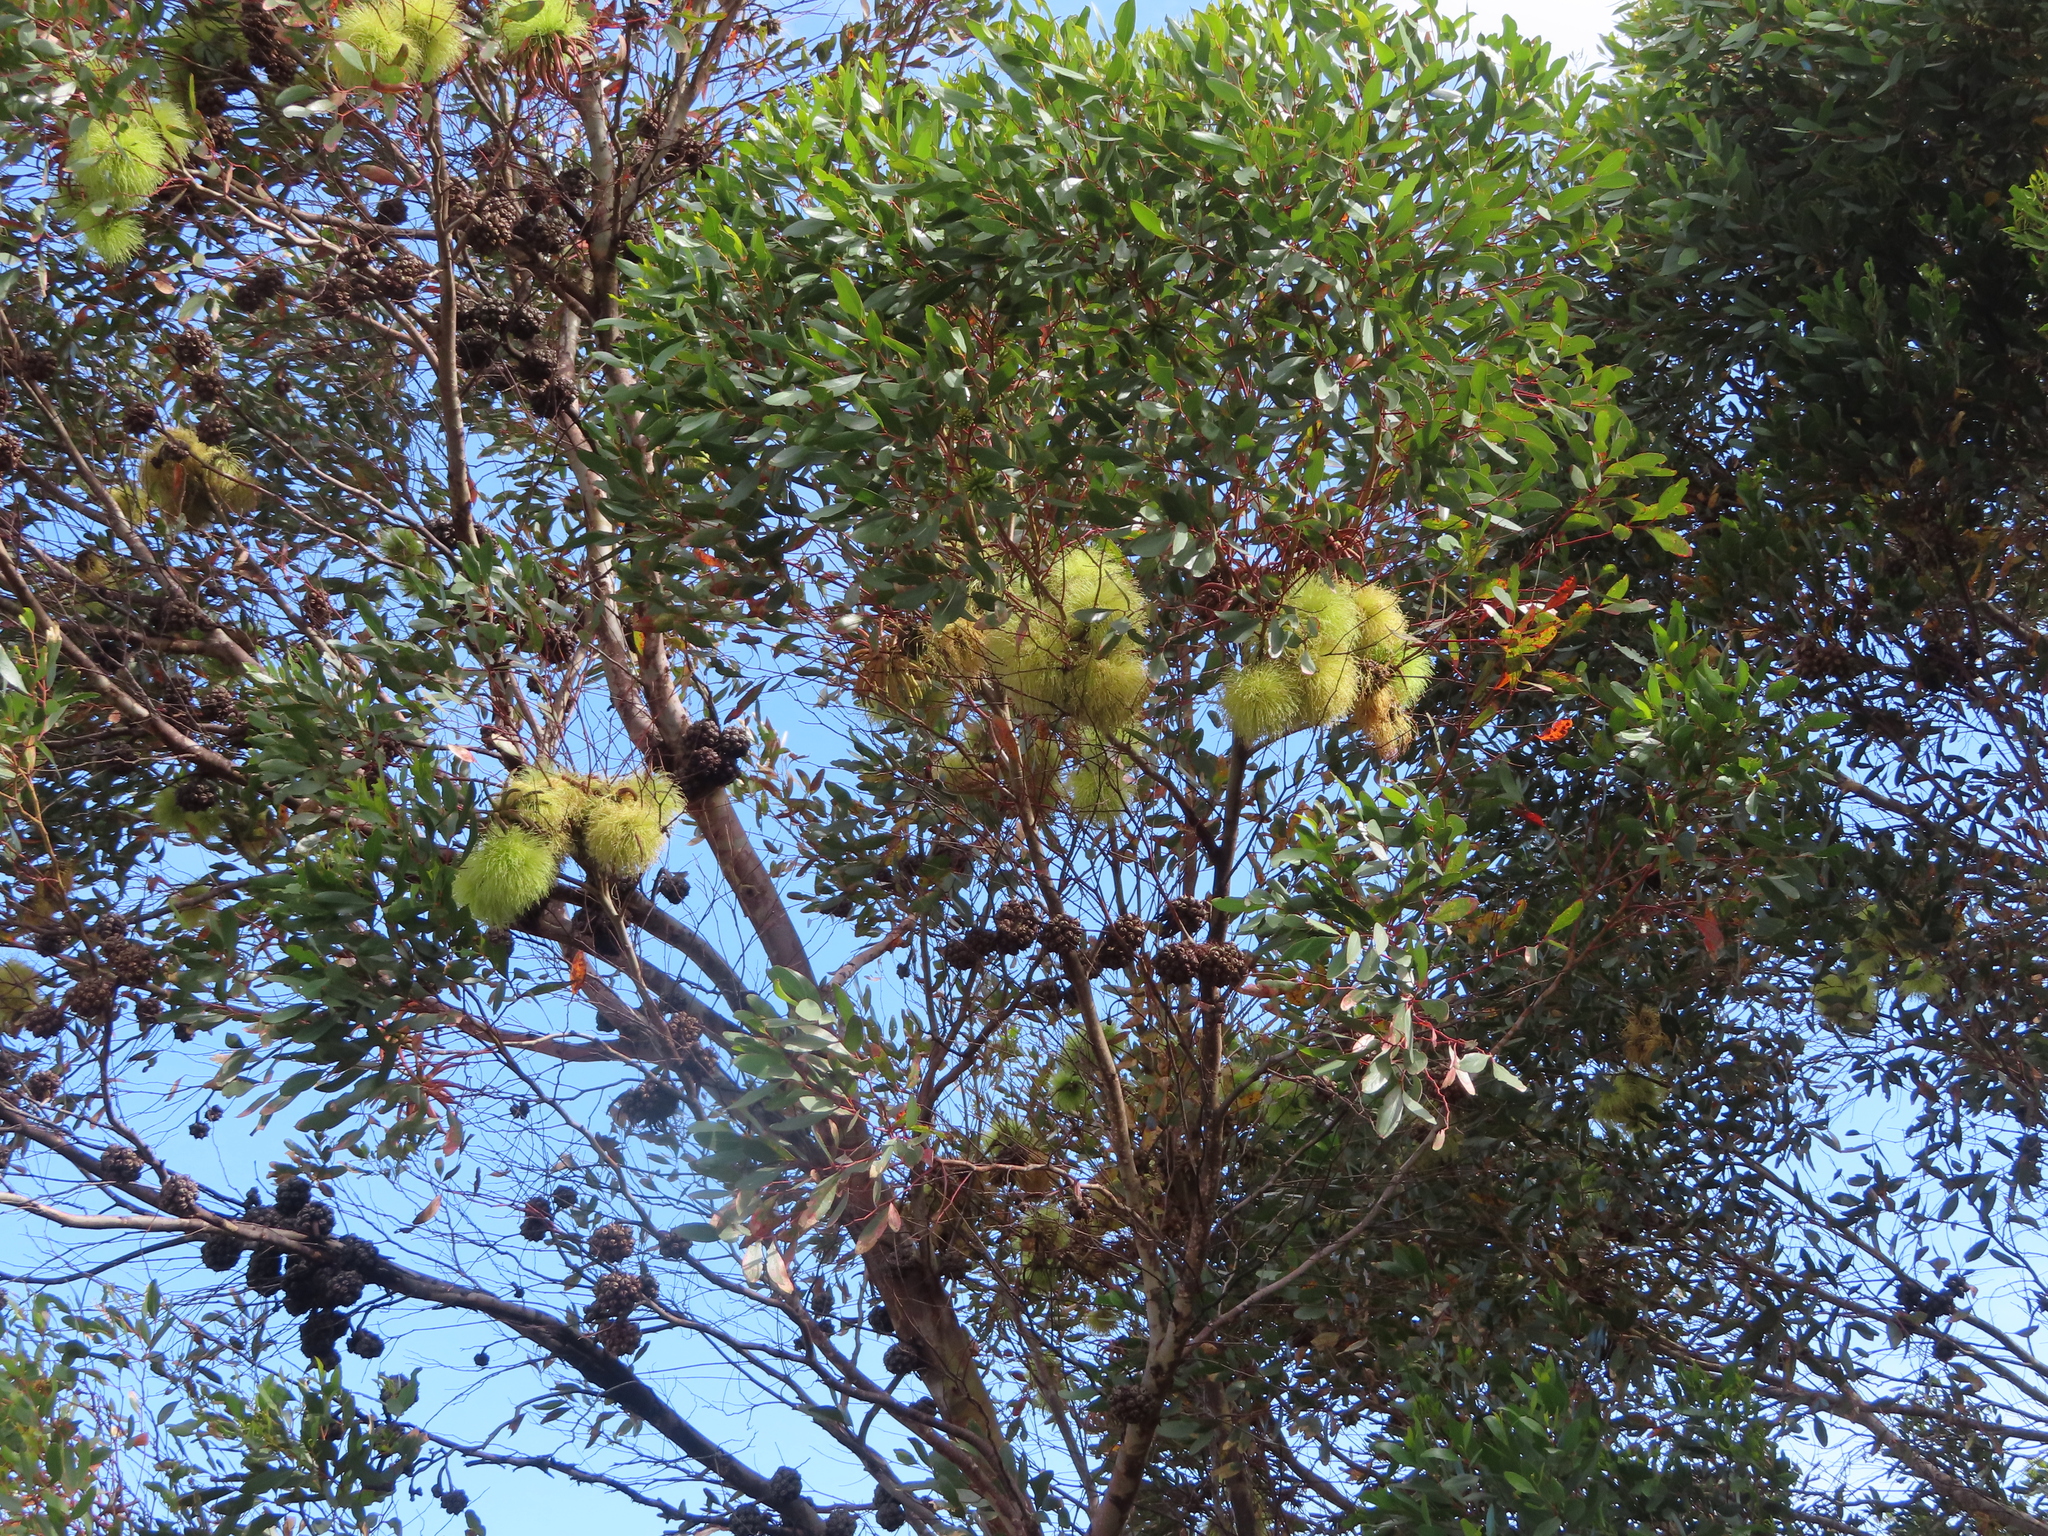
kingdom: Plantae
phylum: Tracheophyta
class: Magnoliopsida
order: Myrtales
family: Myrtaceae
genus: Eucalyptus
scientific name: Eucalyptus conferruminata
